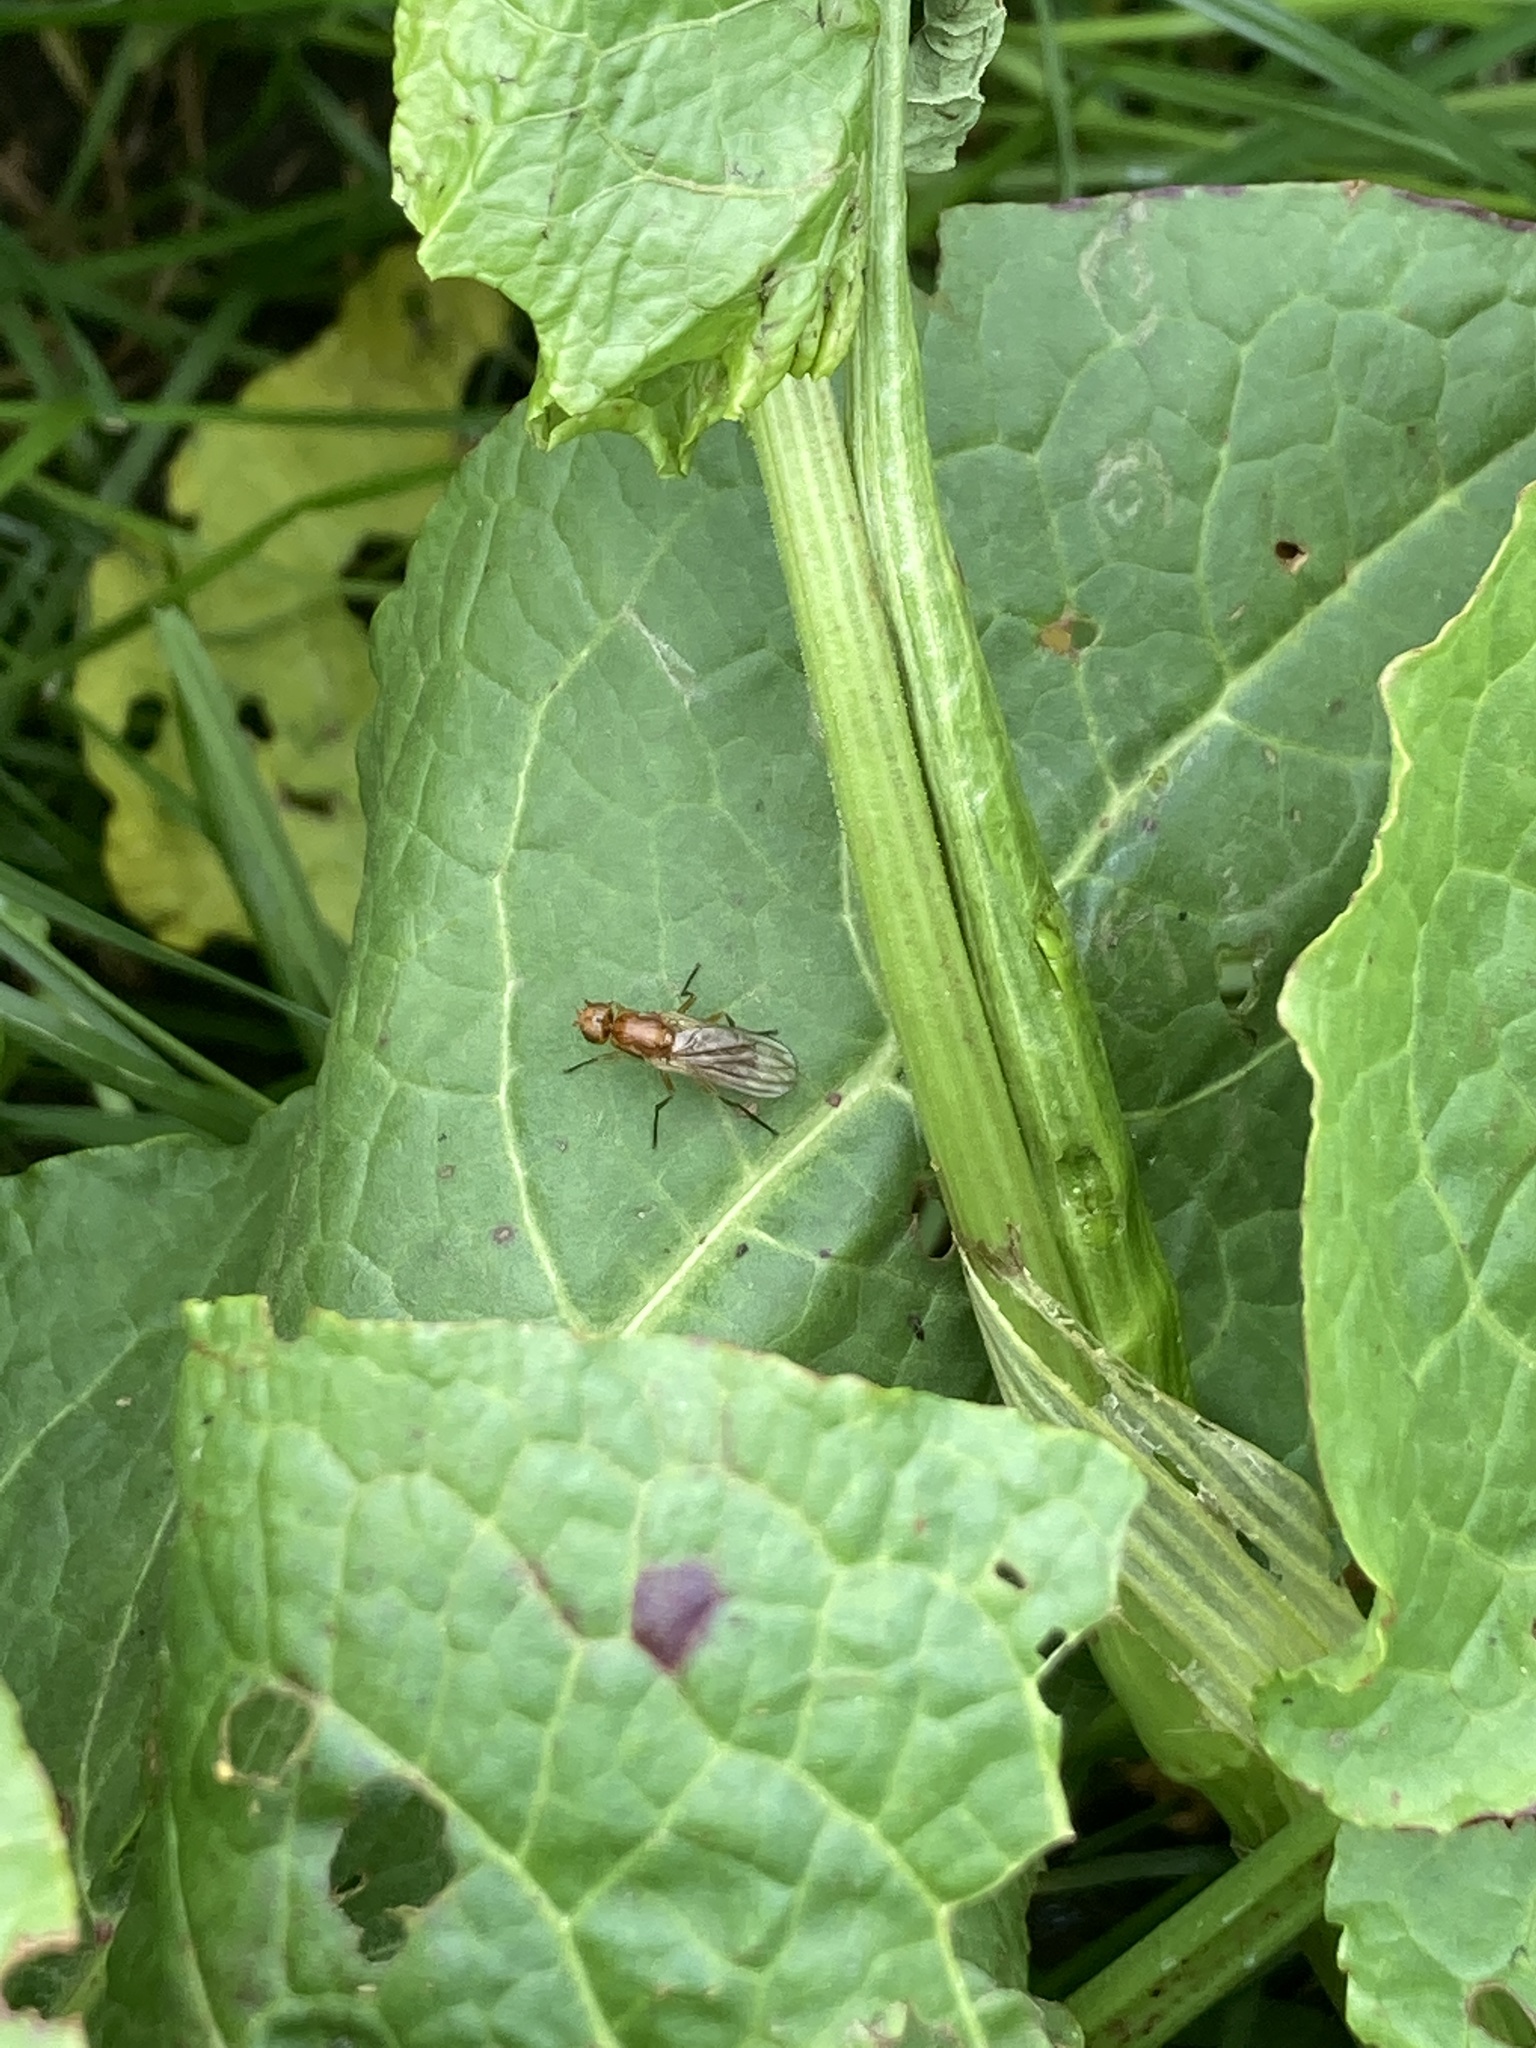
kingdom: Animalia
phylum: Arthropoda
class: Insecta
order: Diptera
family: Psilidae
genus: Psila
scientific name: Psila
